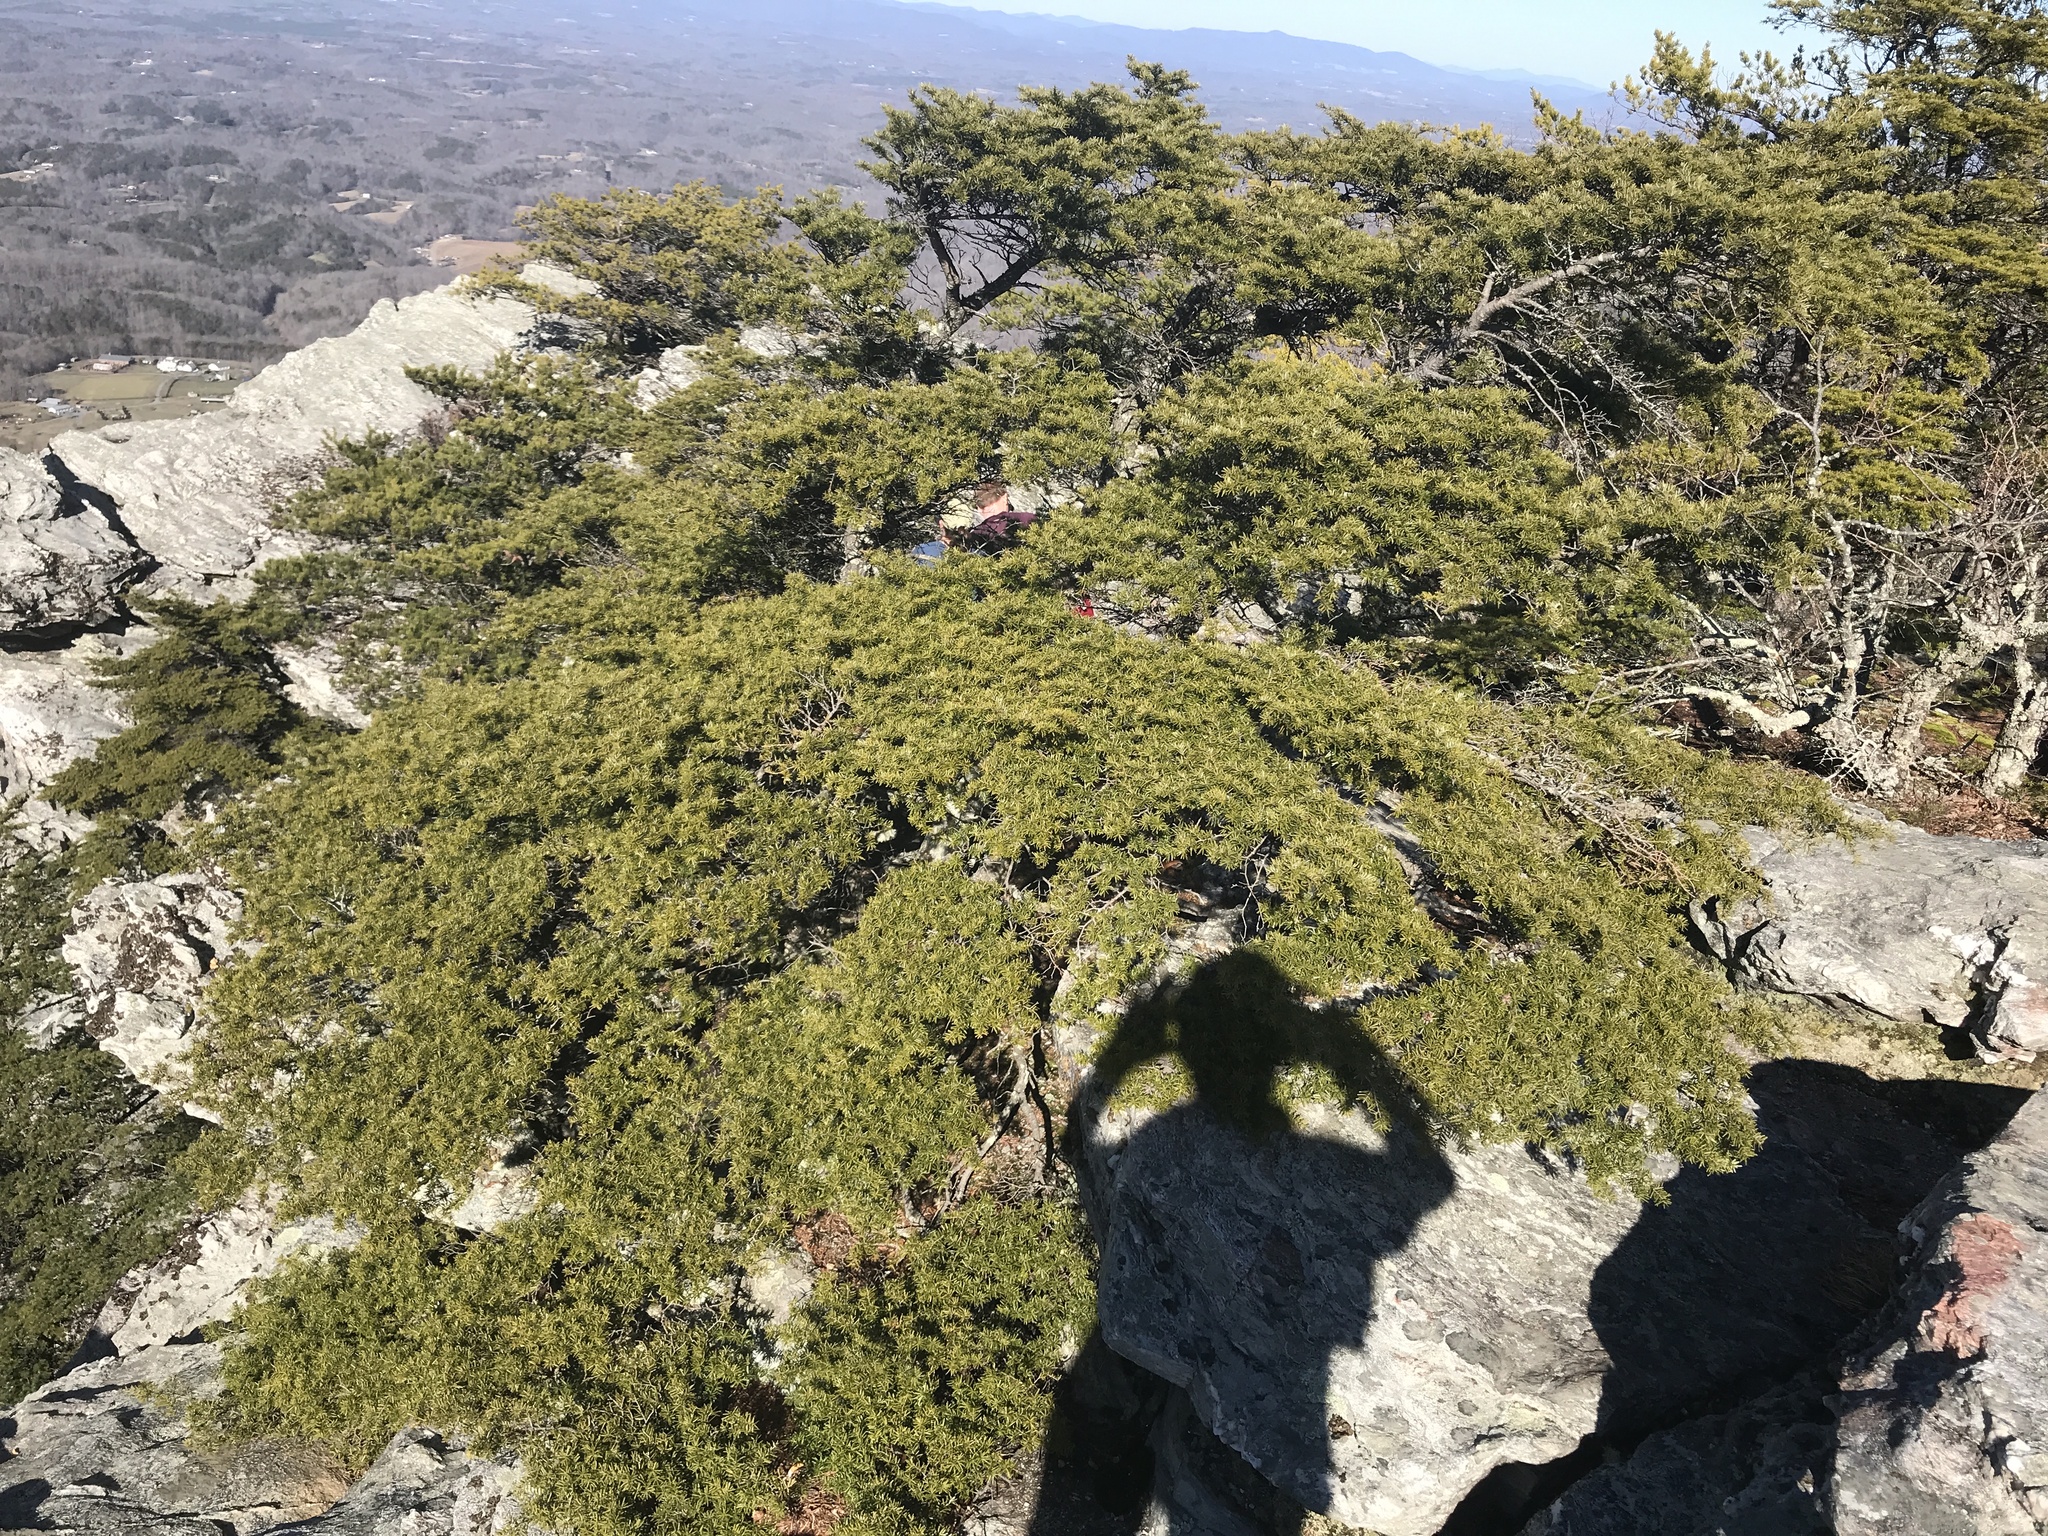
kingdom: Plantae
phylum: Tracheophyta
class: Pinopsida
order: Pinales
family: Pinaceae
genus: Tsuga
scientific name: Tsuga caroliniana
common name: Carolina hemlock
